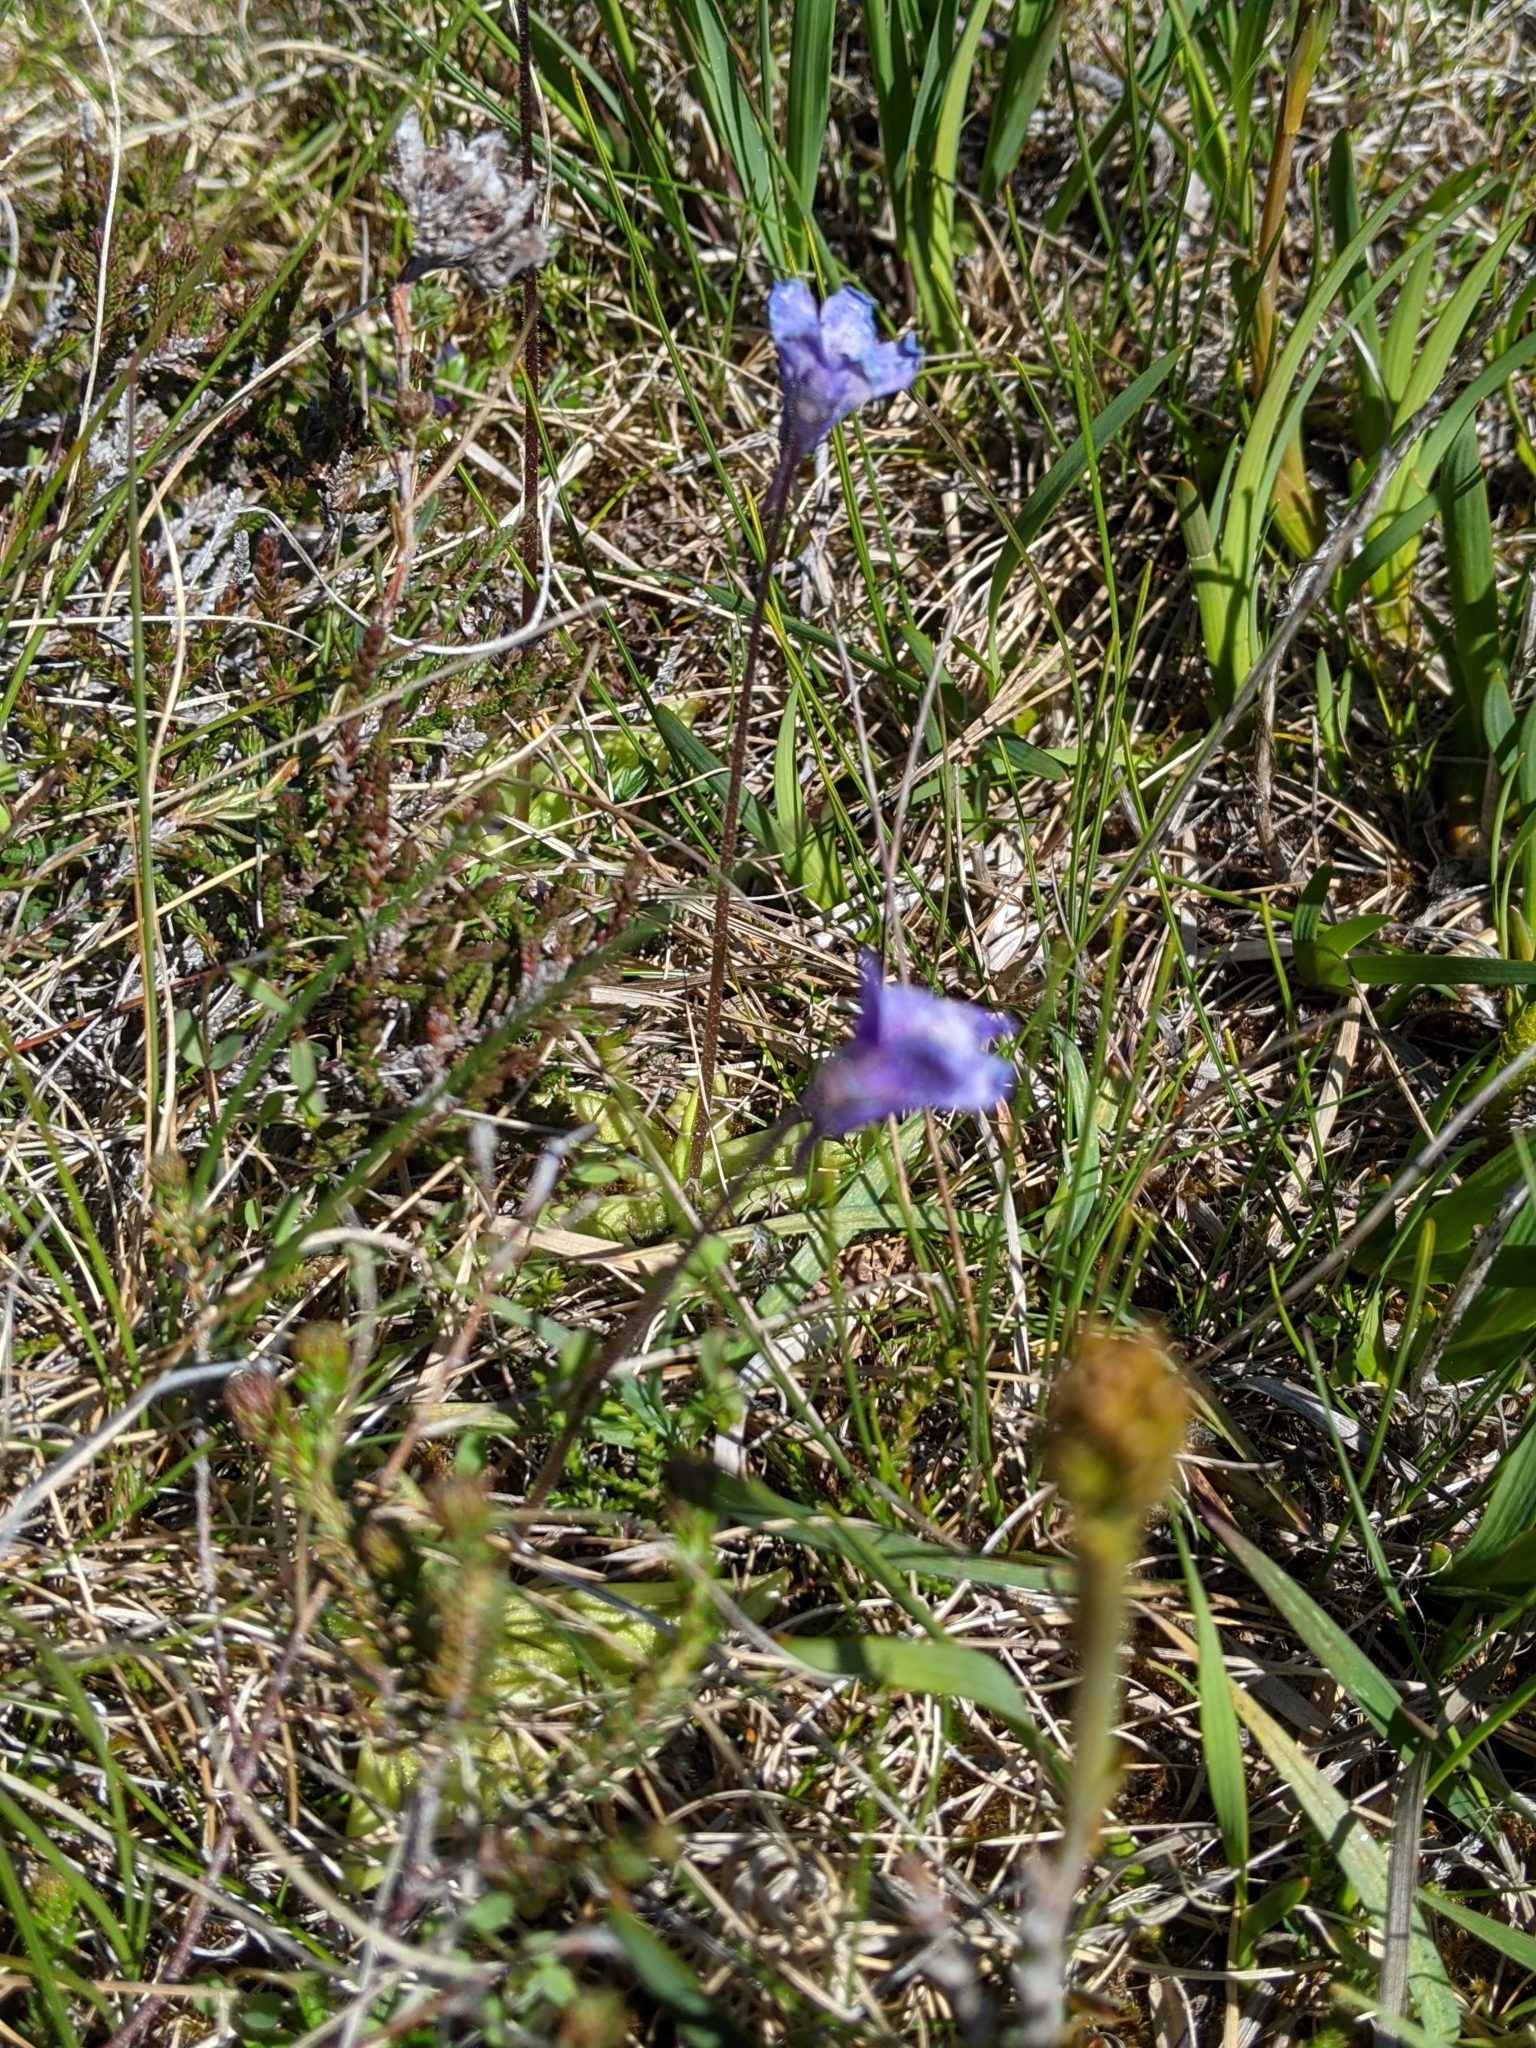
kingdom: Plantae
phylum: Tracheophyta
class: Magnoliopsida
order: Lamiales
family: Lentibulariaceae
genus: Pinguicula
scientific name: Pinguicula vulgaris
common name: Common butterwort
